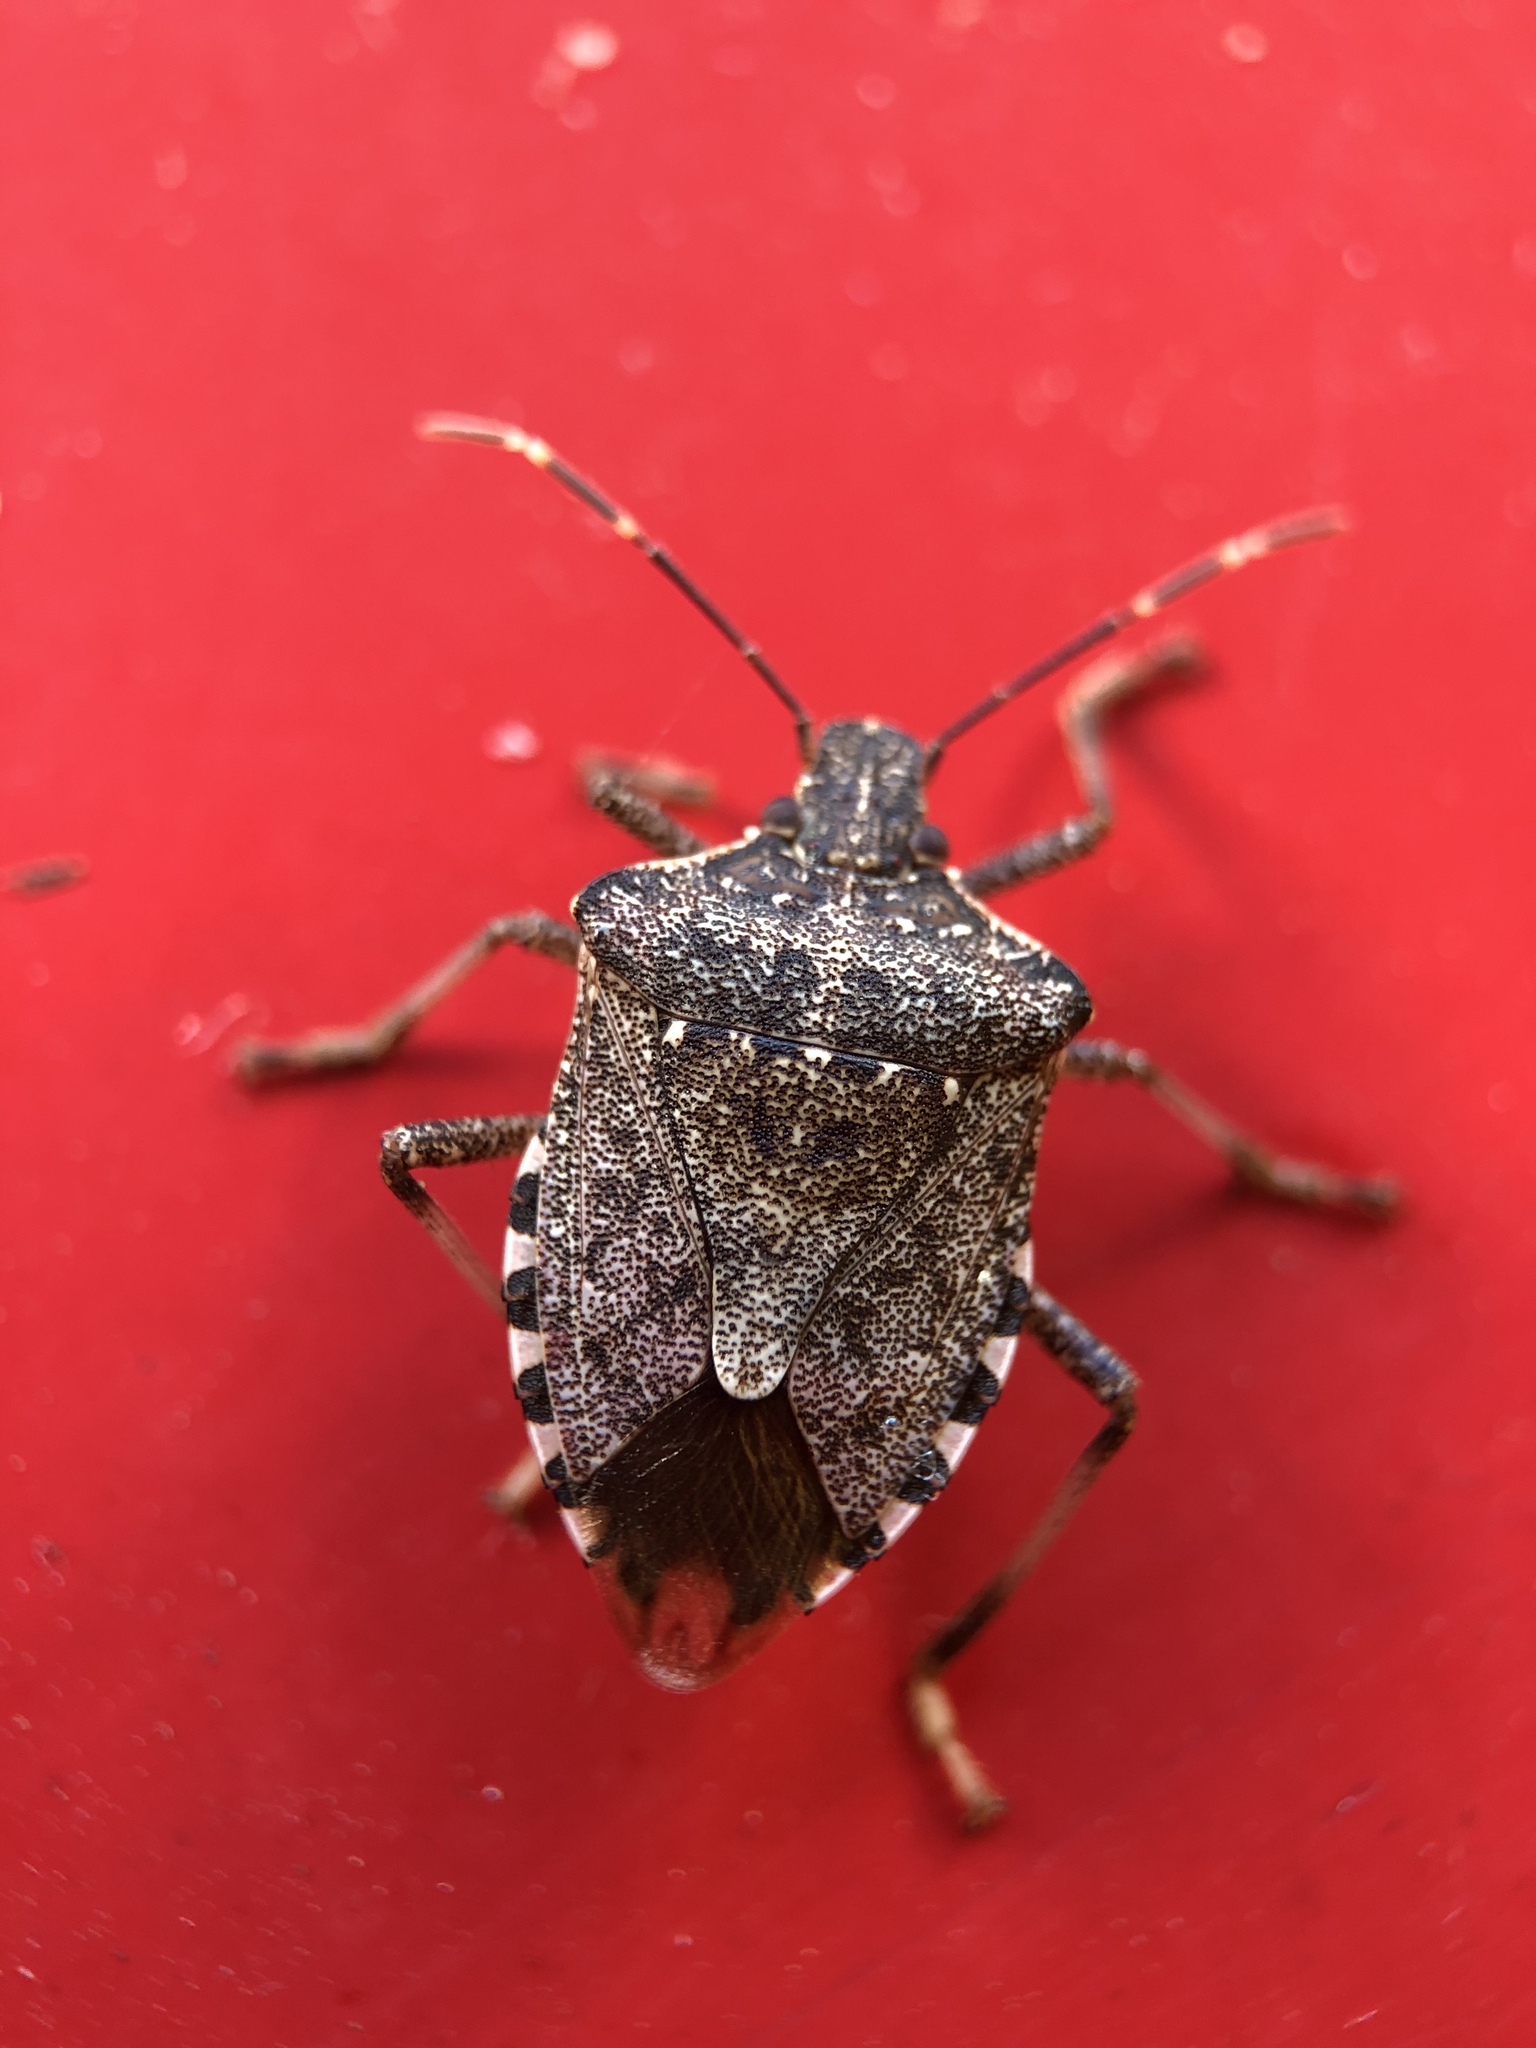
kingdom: Animalia
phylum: Arthropoda
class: Insecta
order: Hemiptera
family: Pentatomidae
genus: Halyomorpha
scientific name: Halyomorpha halys
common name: Brown marmorated stink bug
